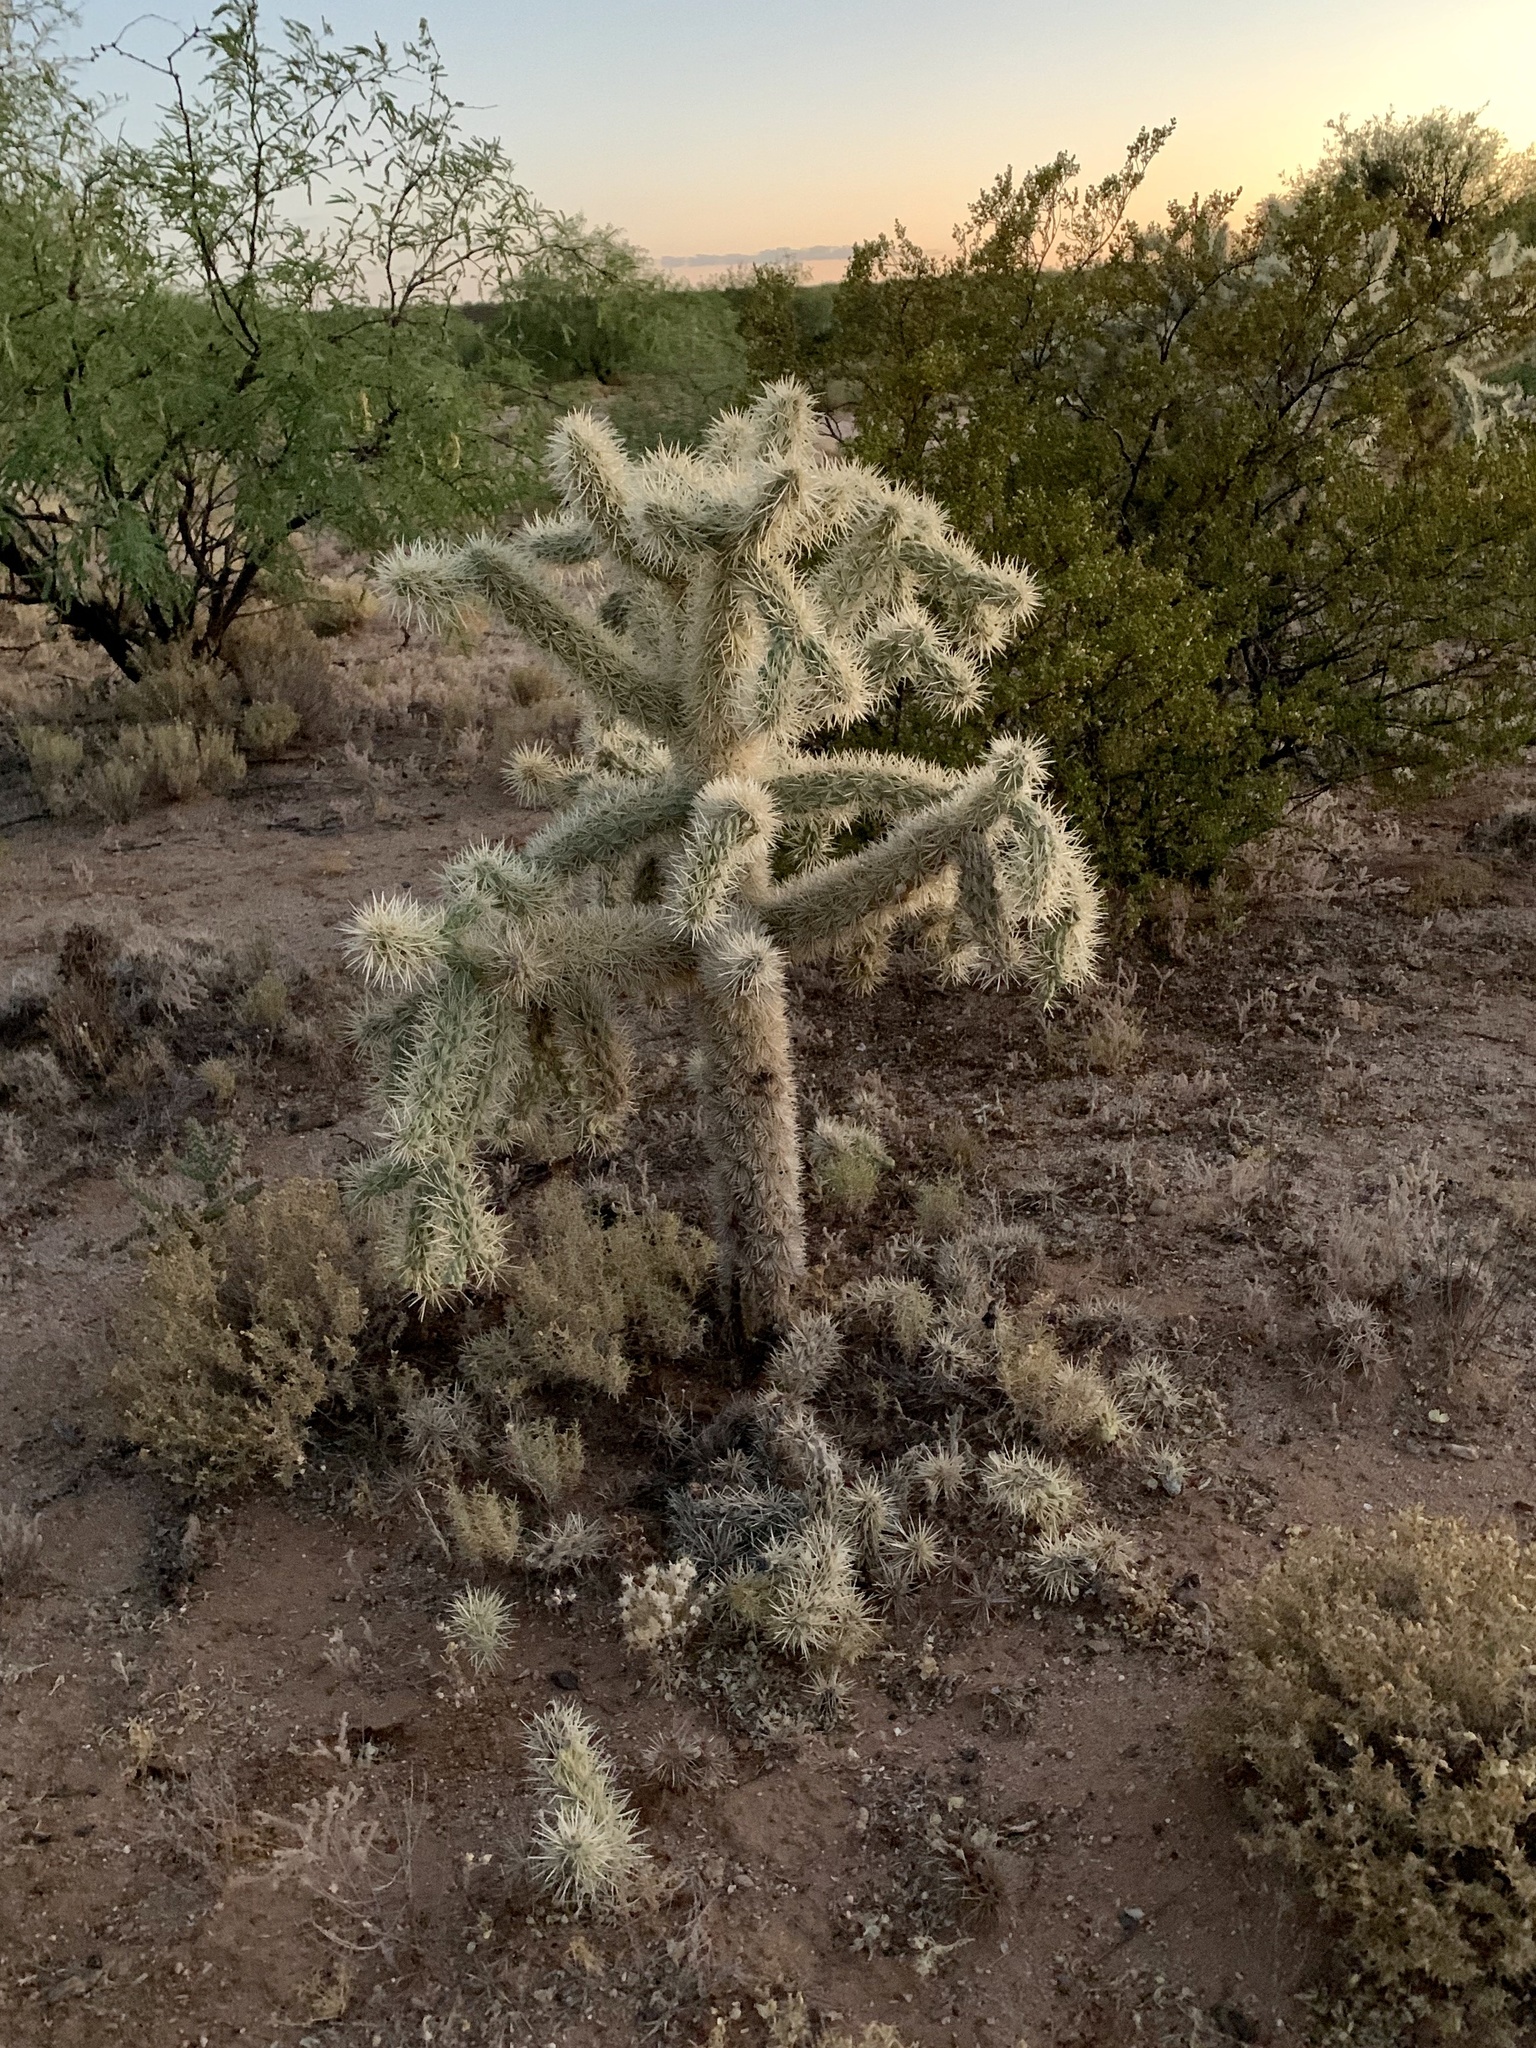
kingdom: Plantae
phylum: Tracheophyta
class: Magnoliopsida
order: Caryophyllales
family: Cactaceae
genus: Cylindropuntia
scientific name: Cylindropuntia fulgida
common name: Jumping cholla
